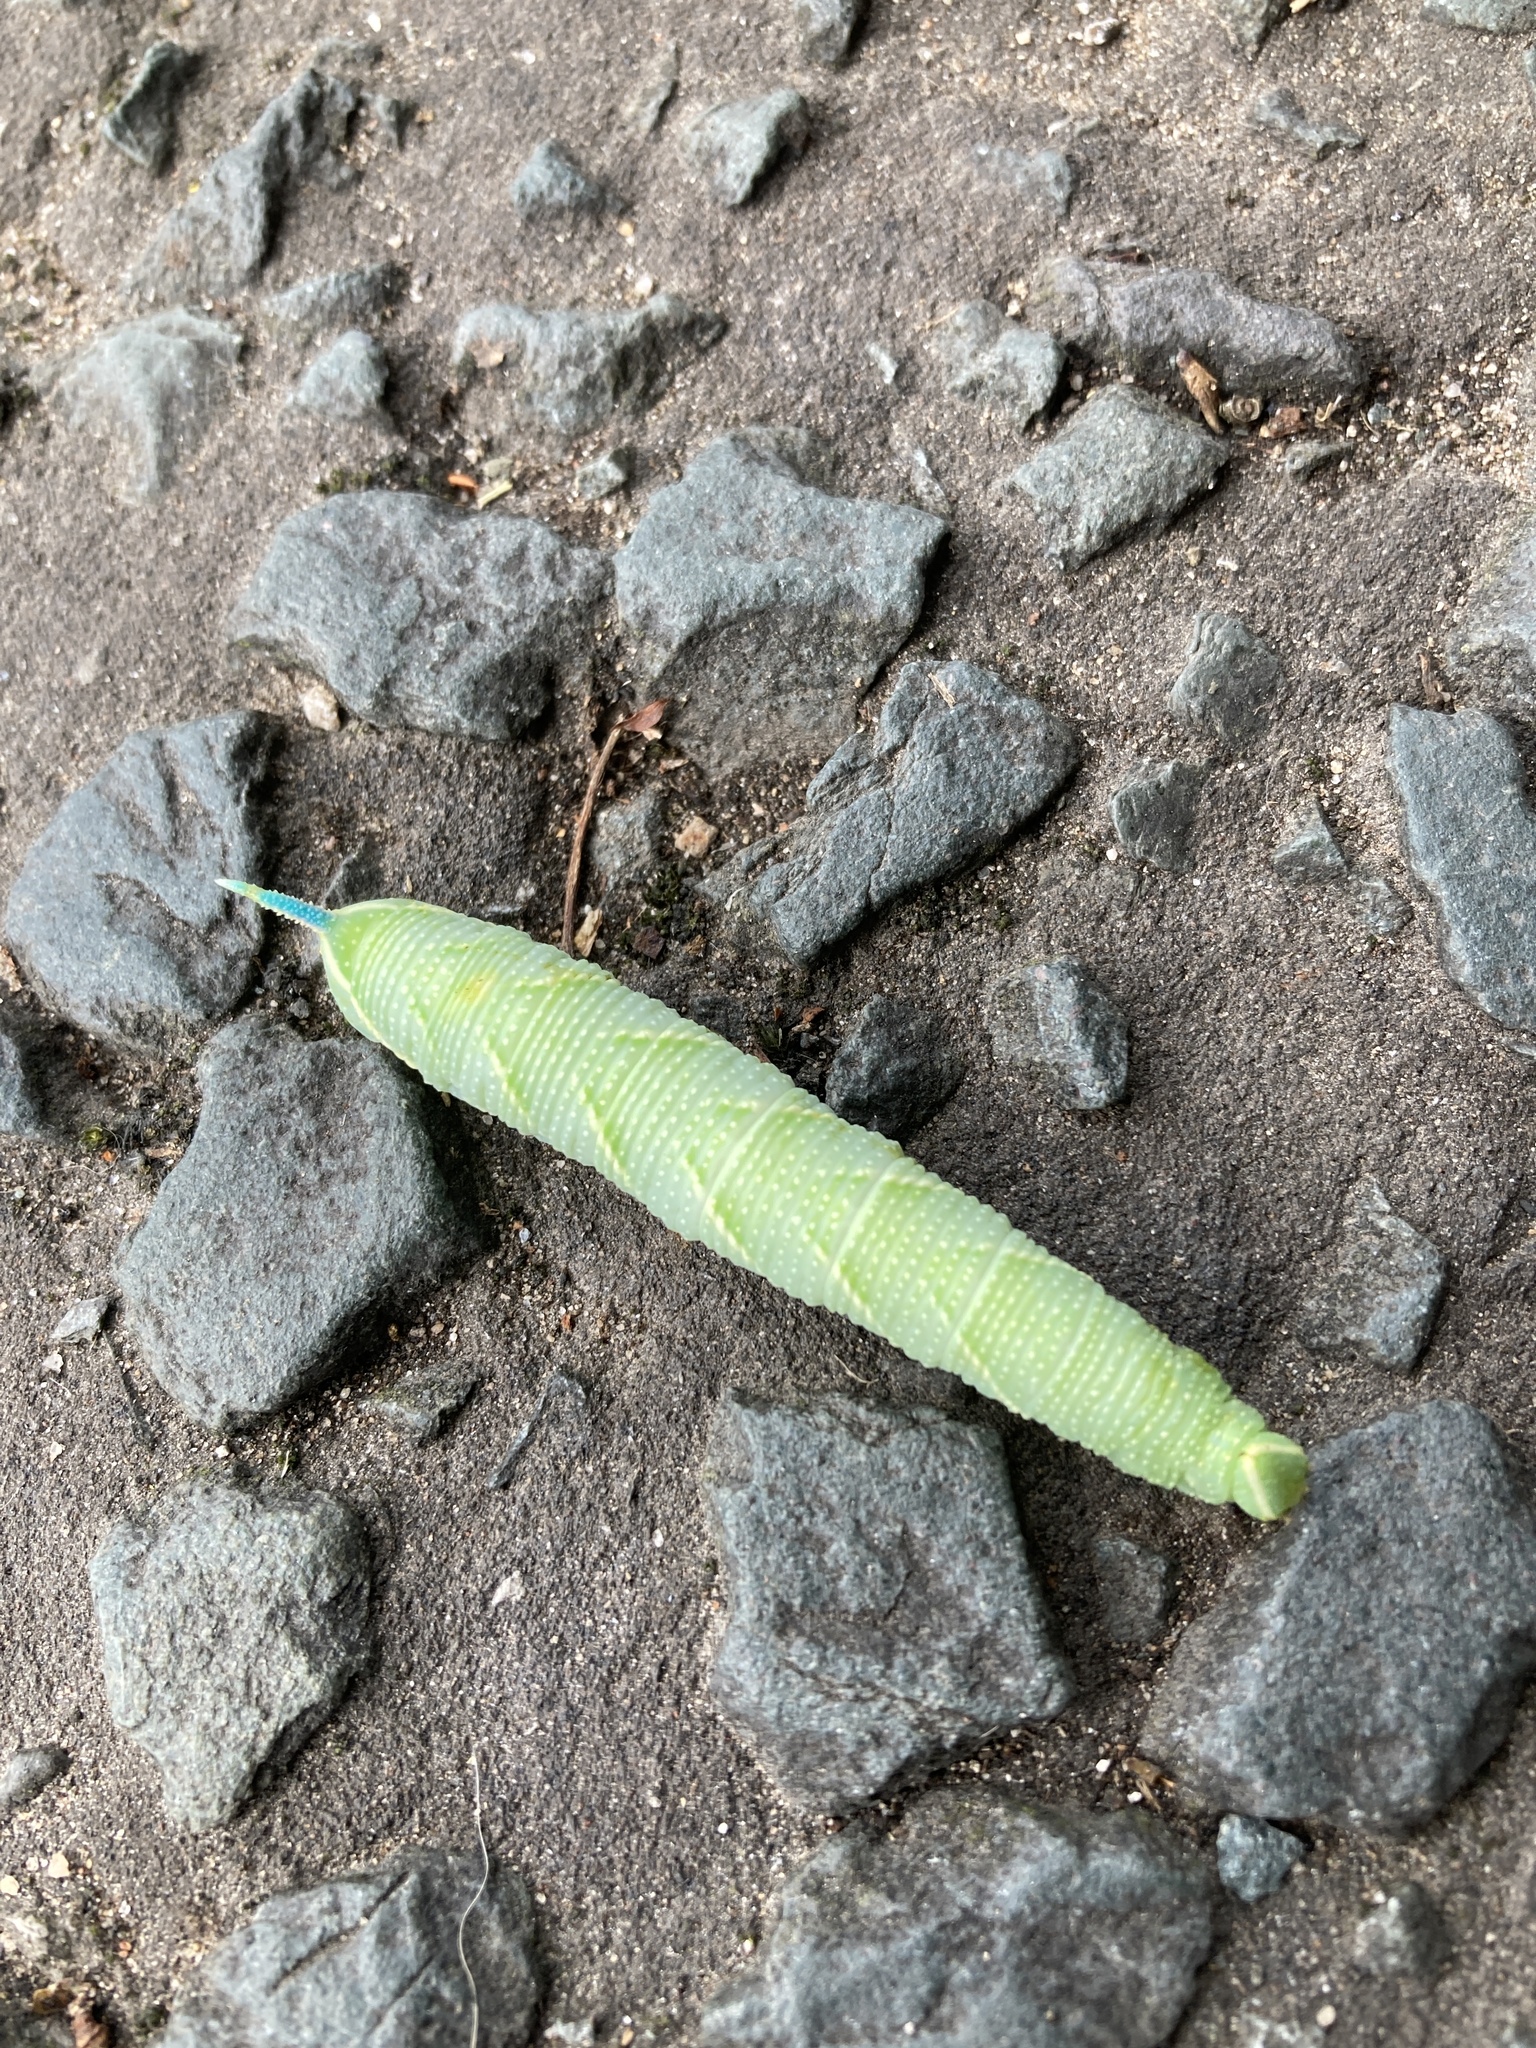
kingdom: Animalia
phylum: Arthropoda
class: Insecta
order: Lepidoptera
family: Sphingidae
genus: Mimas
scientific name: Mimas tiliae
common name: Lime hawk-moth
